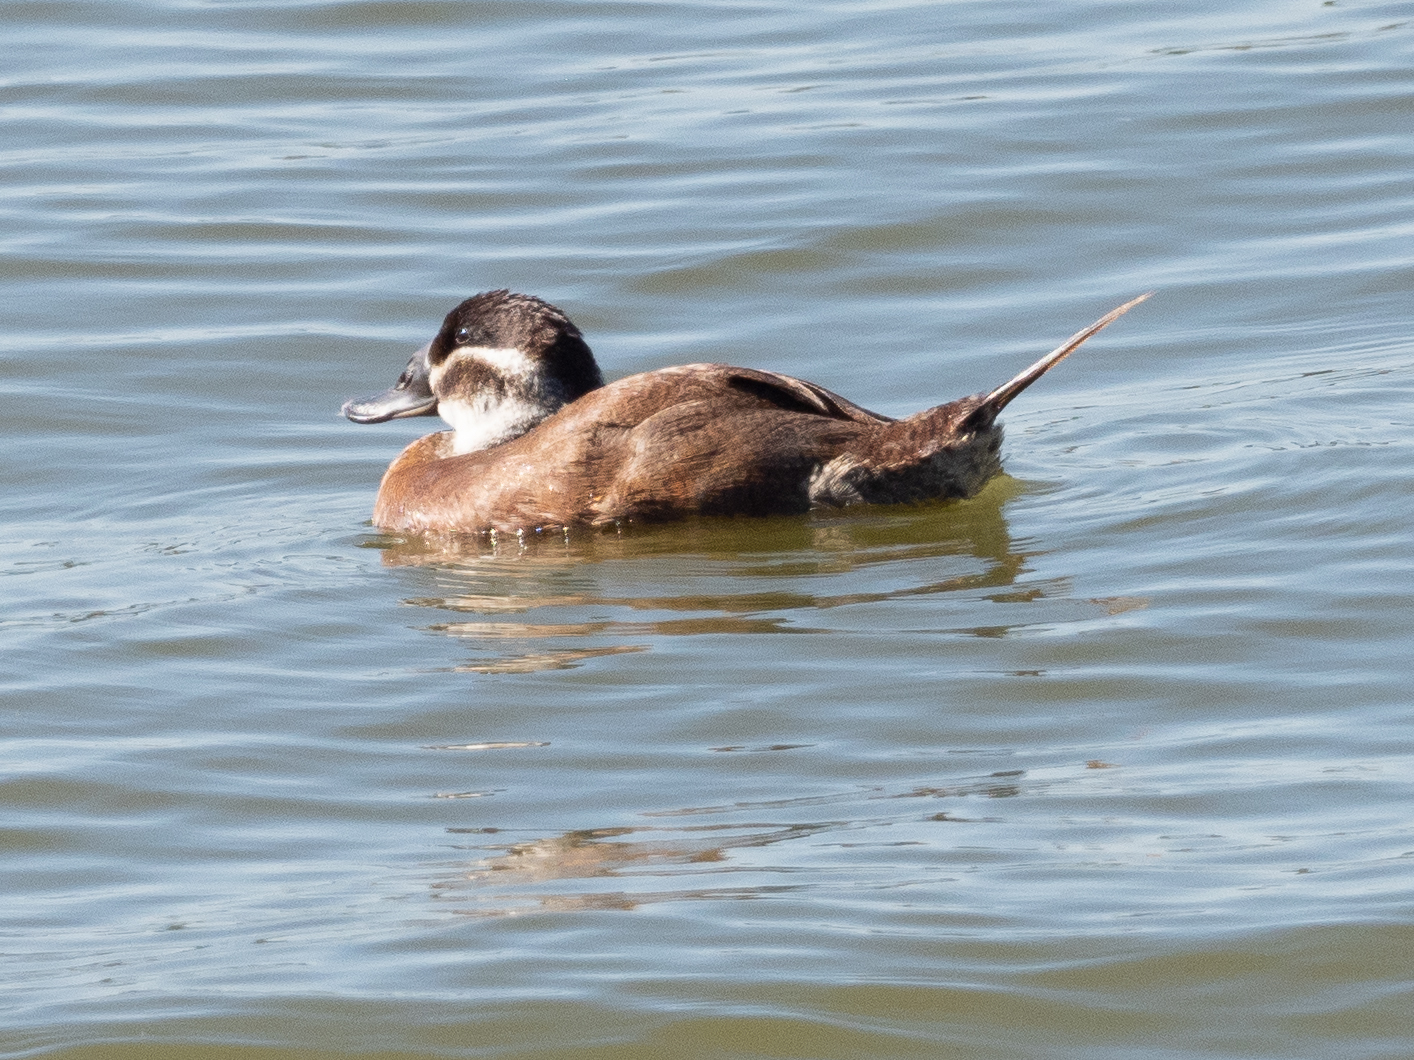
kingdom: Animalia
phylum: Chordata
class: Aves
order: Anseriformes
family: Anatidae
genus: Oxyura
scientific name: Oxyura leucocephala
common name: White-headed duck
